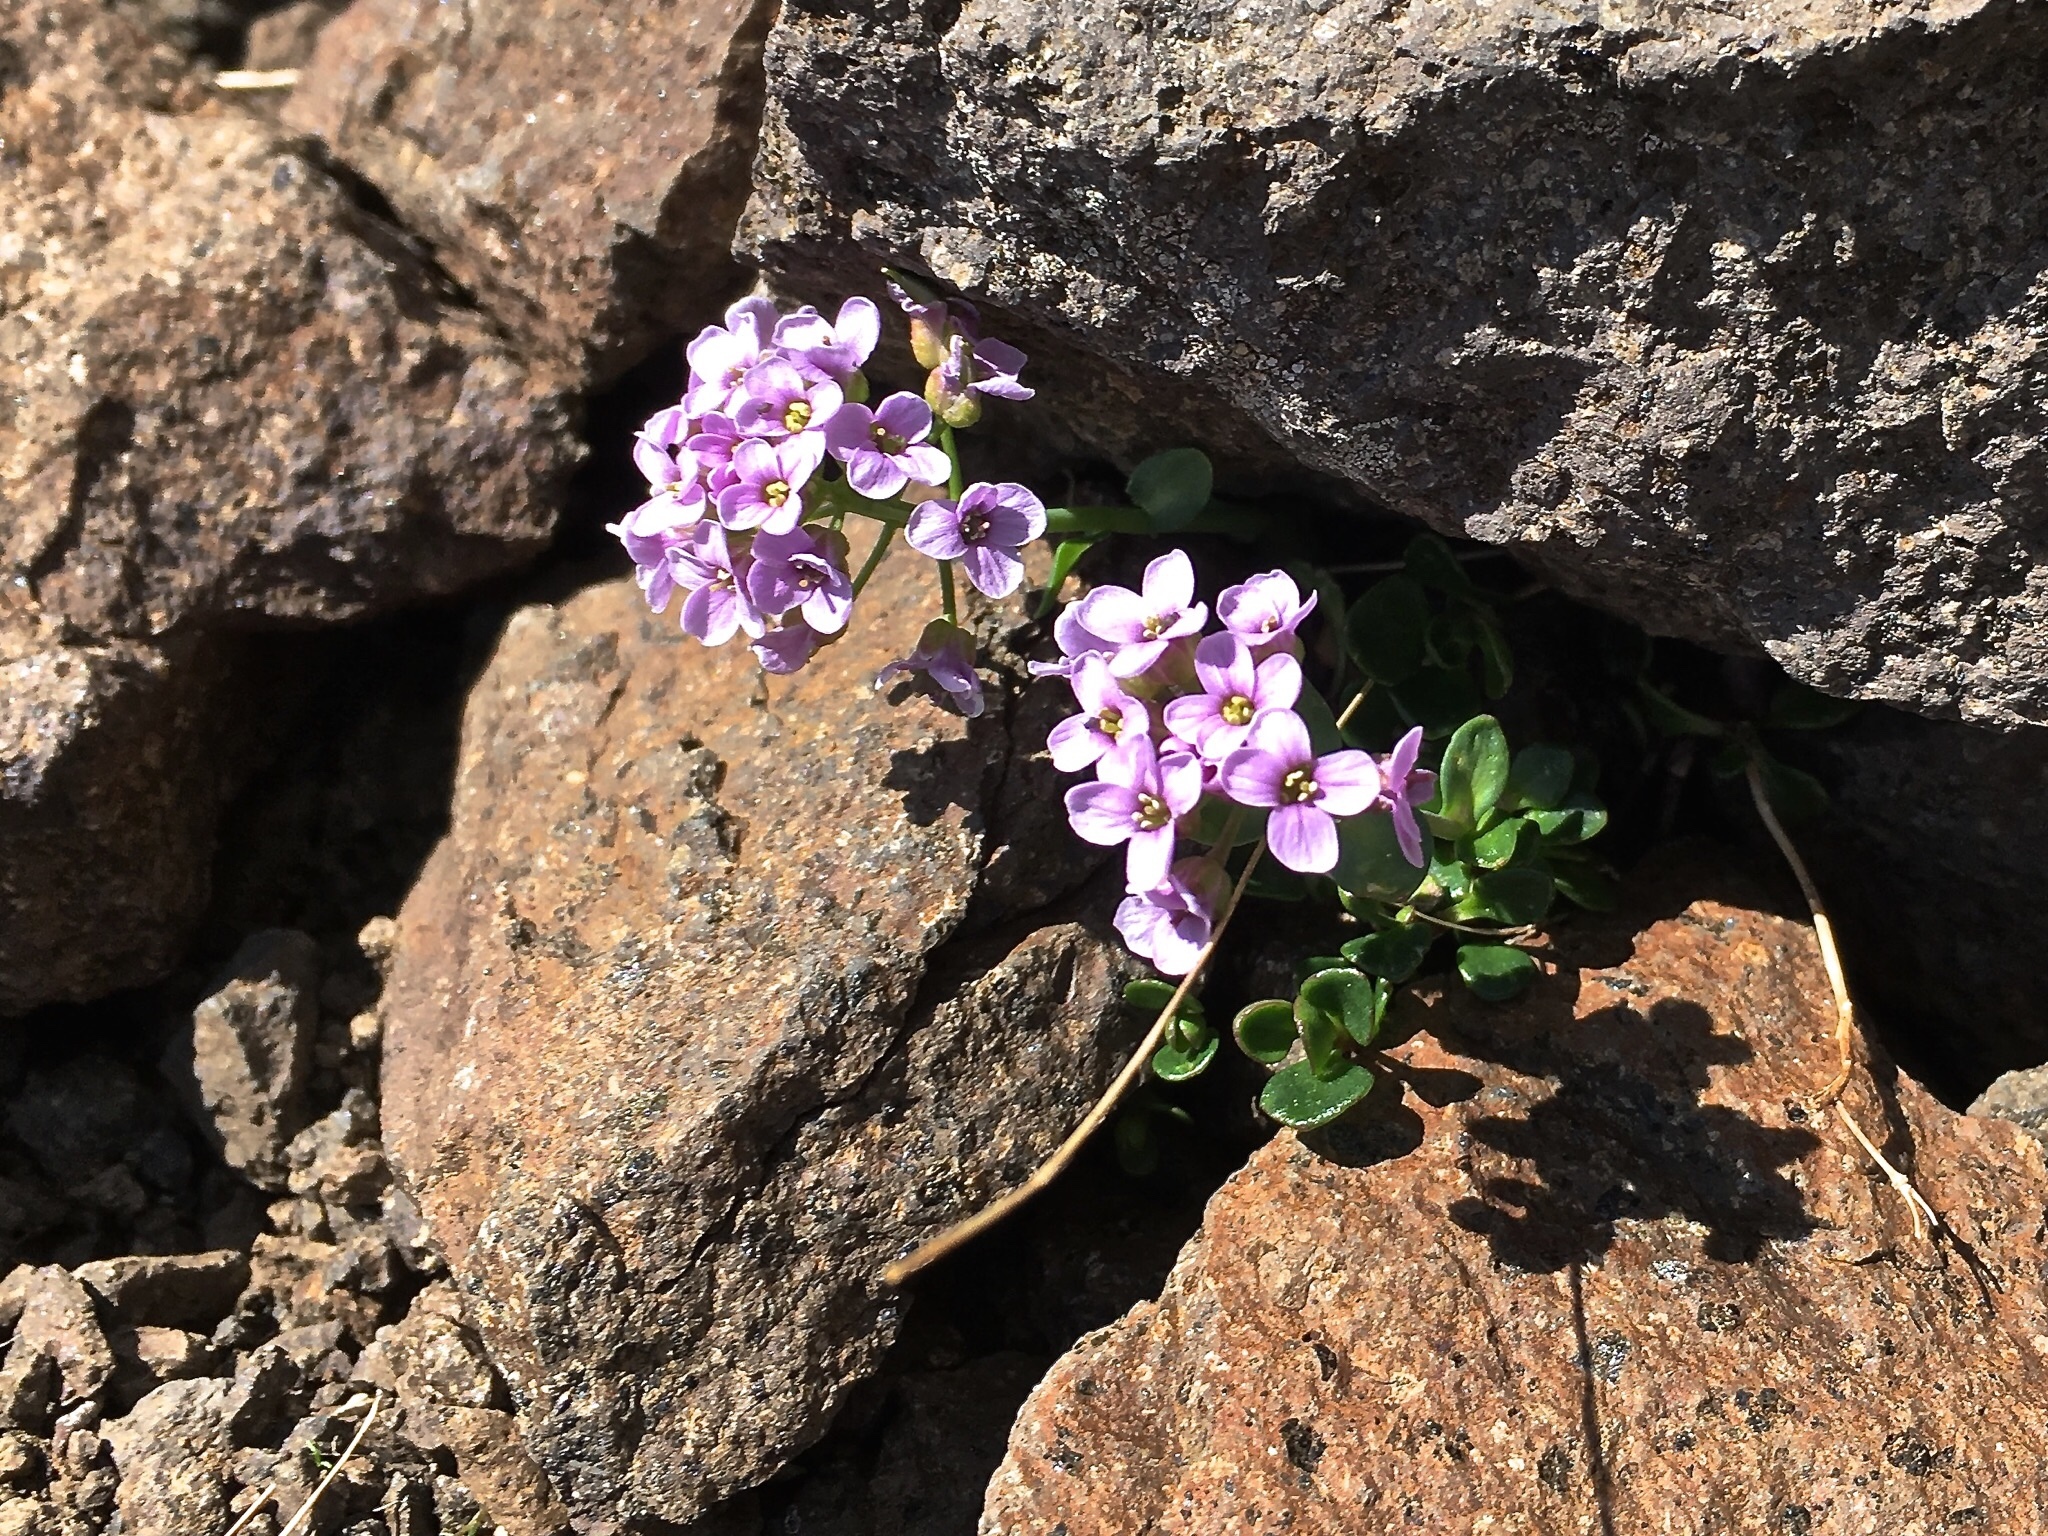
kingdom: Plantae
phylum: Tracheophyta
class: Magnoliopsida
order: Brassicales
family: Brassicaceae
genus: Noccaea
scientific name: Noccaea rotundifolia
